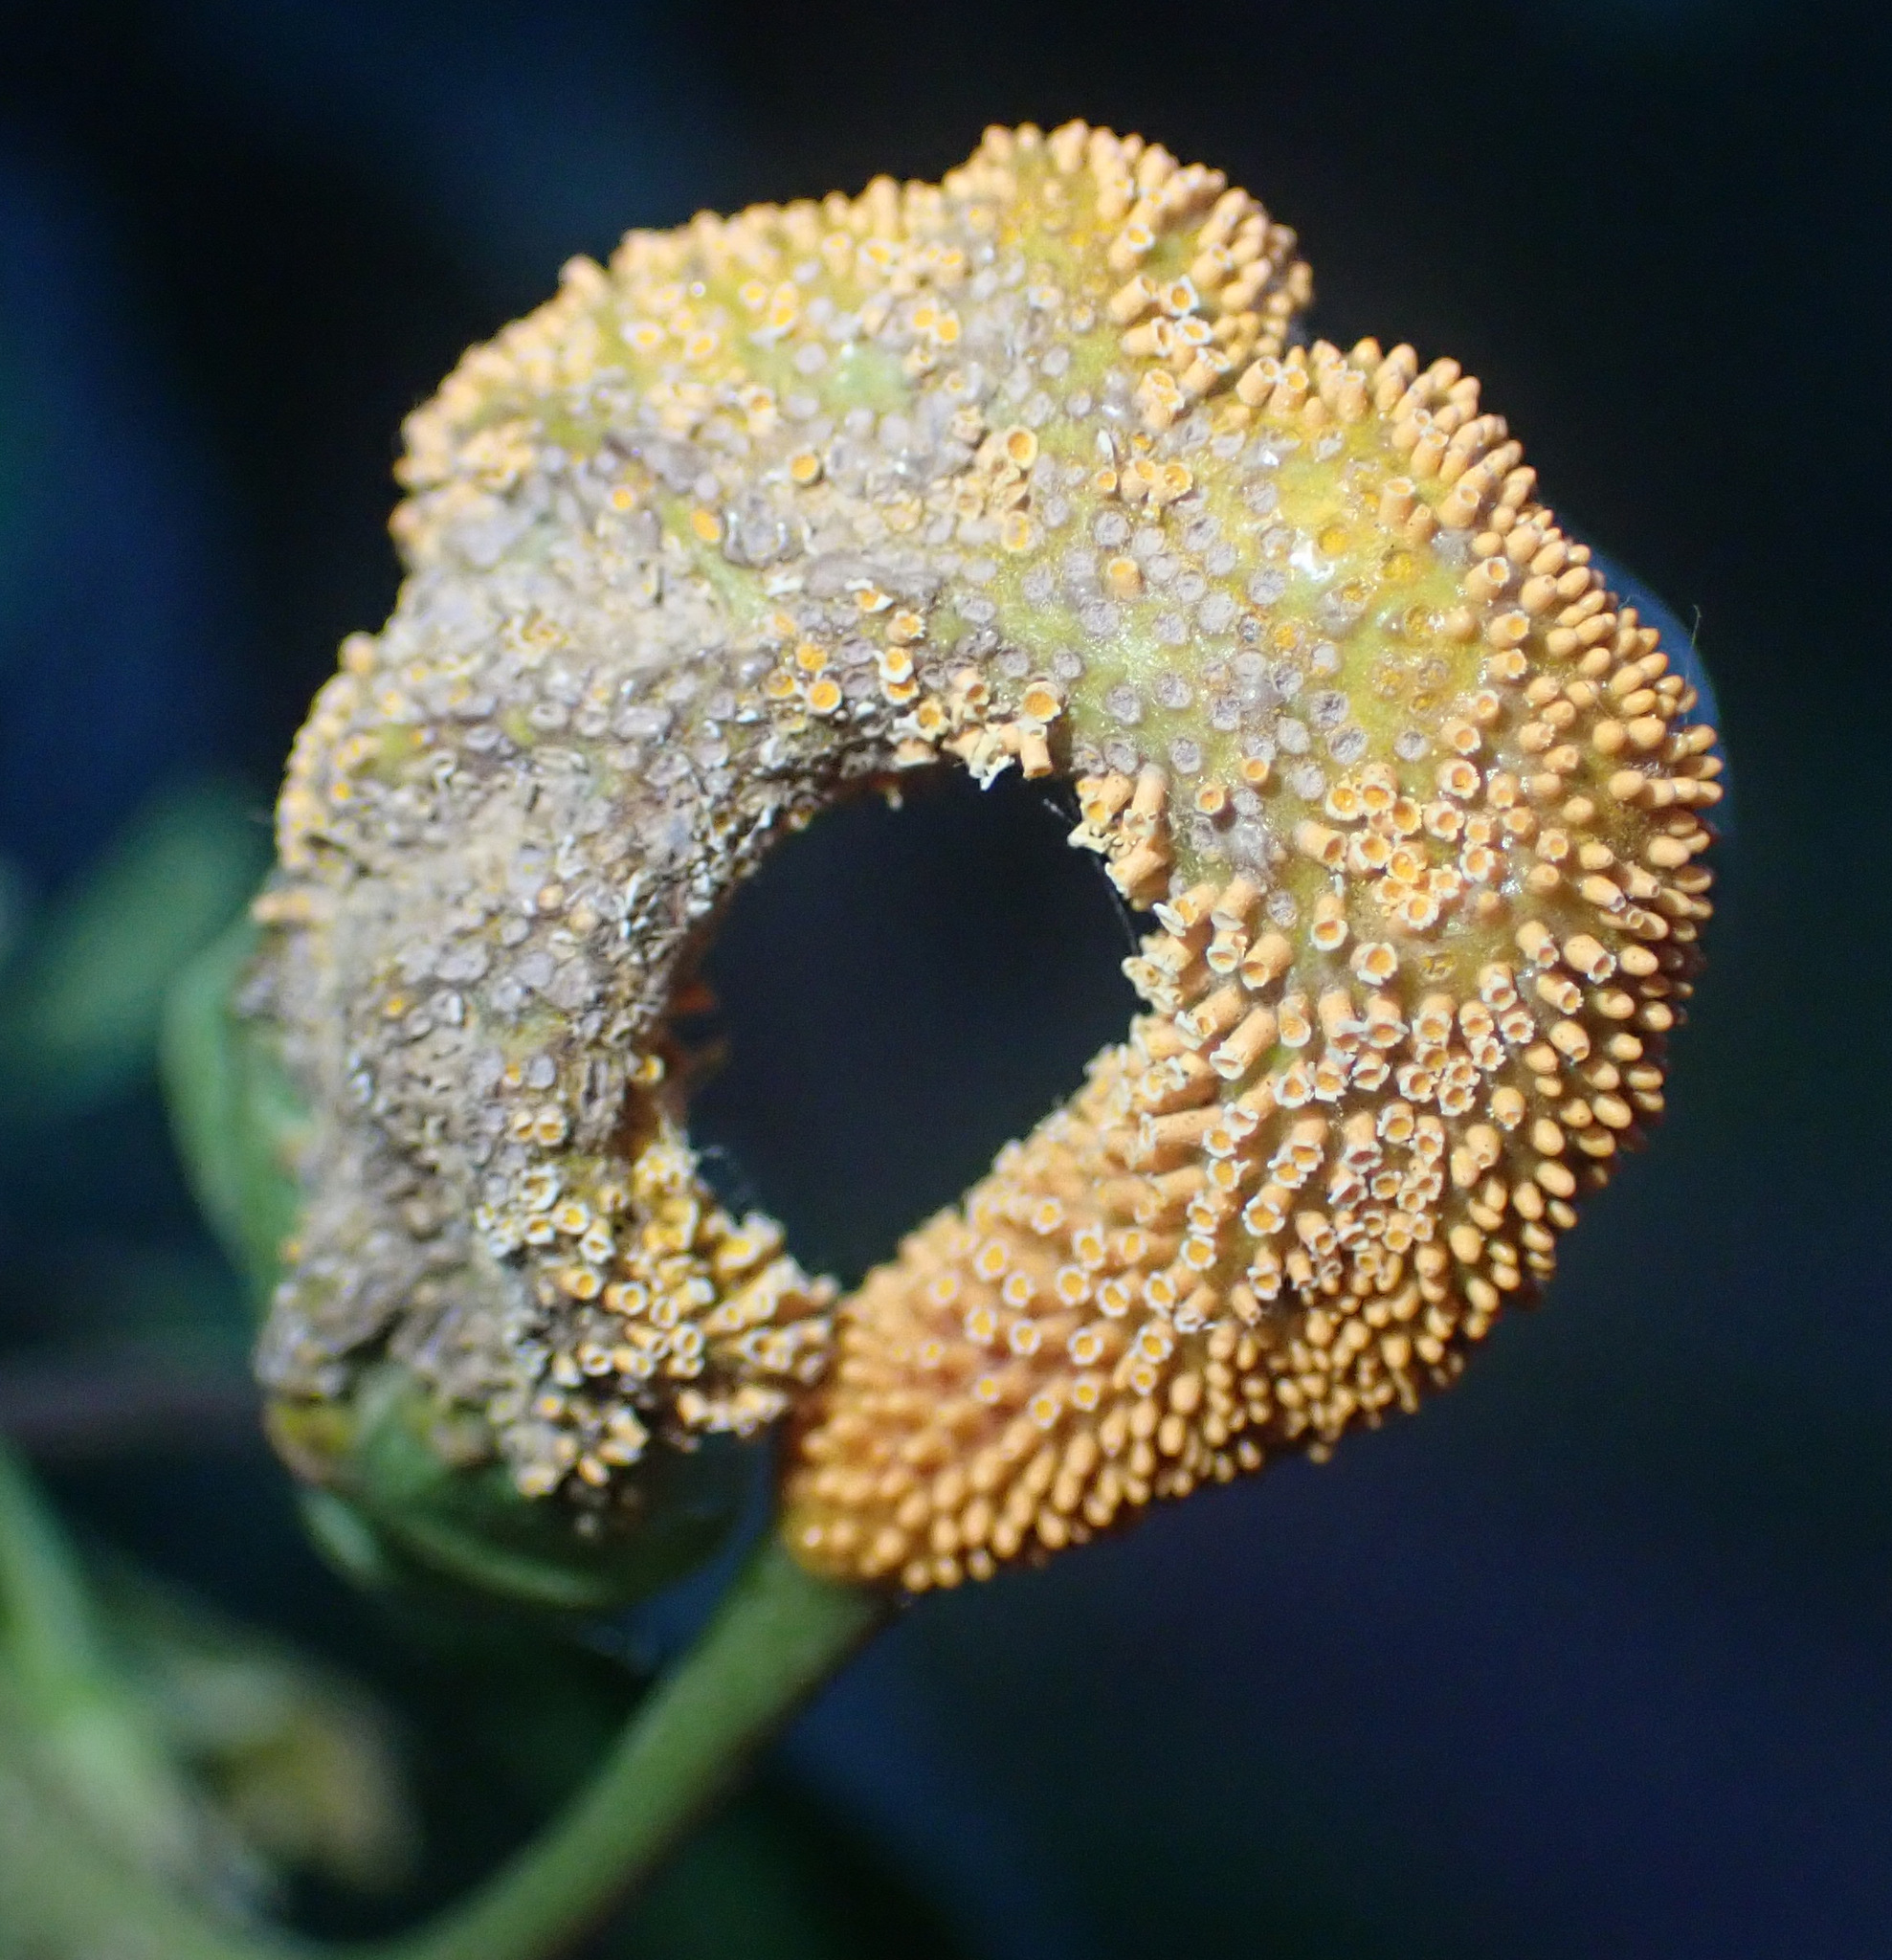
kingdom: Fungi
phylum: Basidiomycota
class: Pucciniomycetes
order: Pucciniales
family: Pucciniaceae
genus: Puccinia
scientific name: Puccinia coronata
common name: Crown rust
